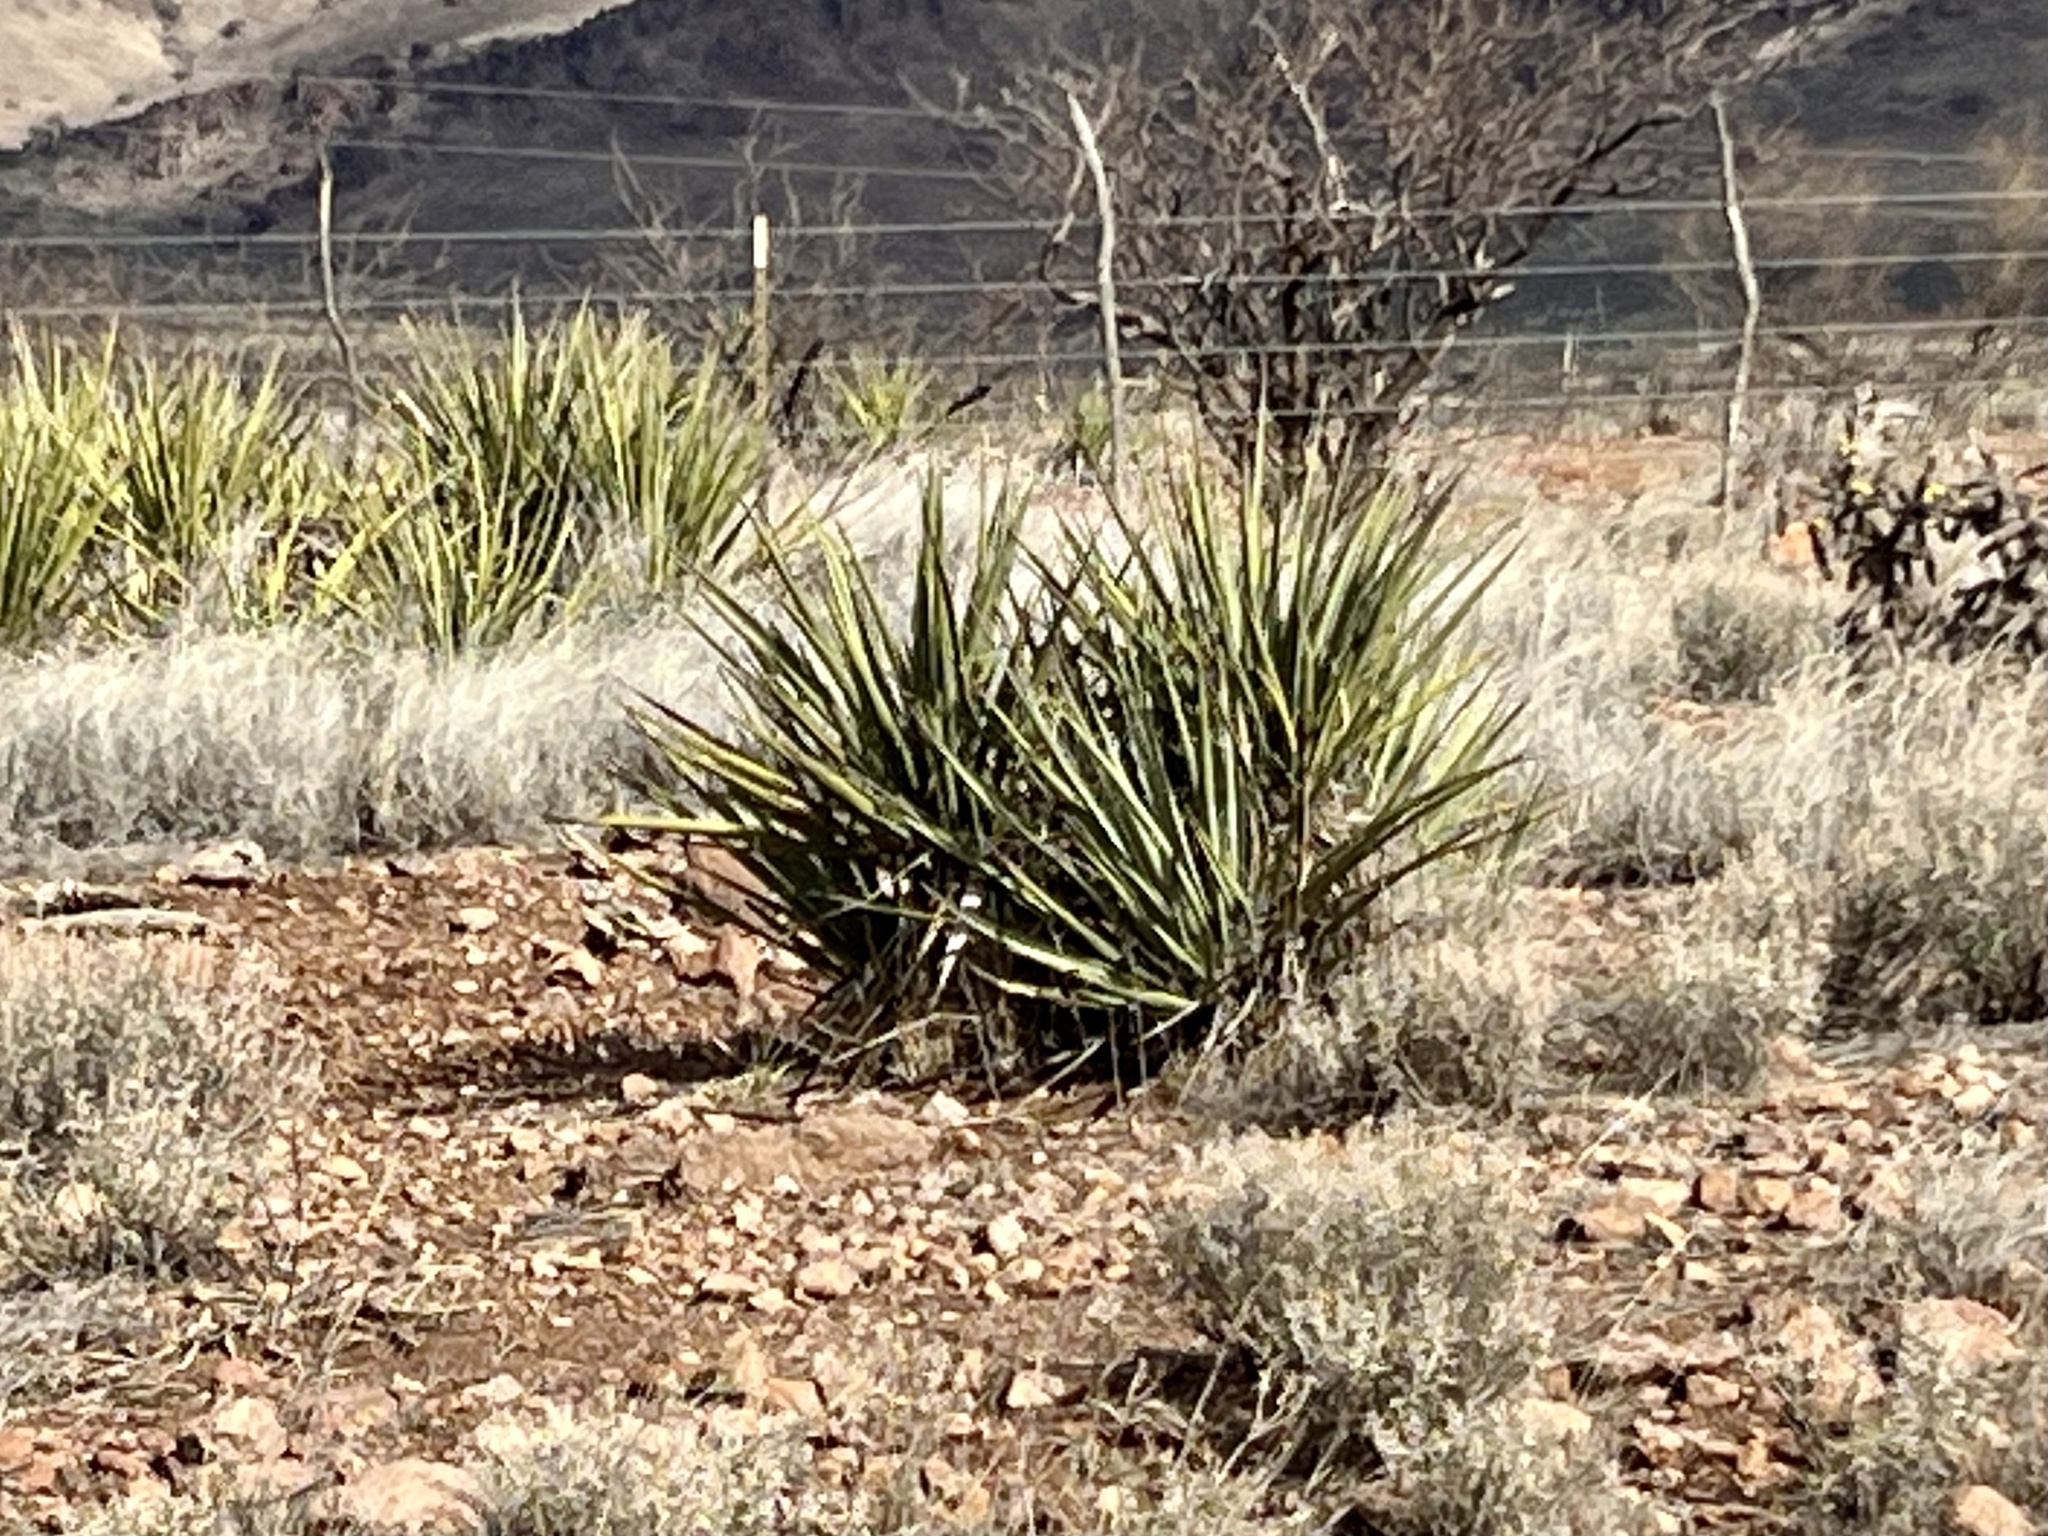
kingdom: Plantae
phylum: Tracheophyta
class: Liliopsida
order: Asparagales
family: Asparagaceae
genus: Yucca
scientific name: Yucca baccata
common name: Banana yucca
